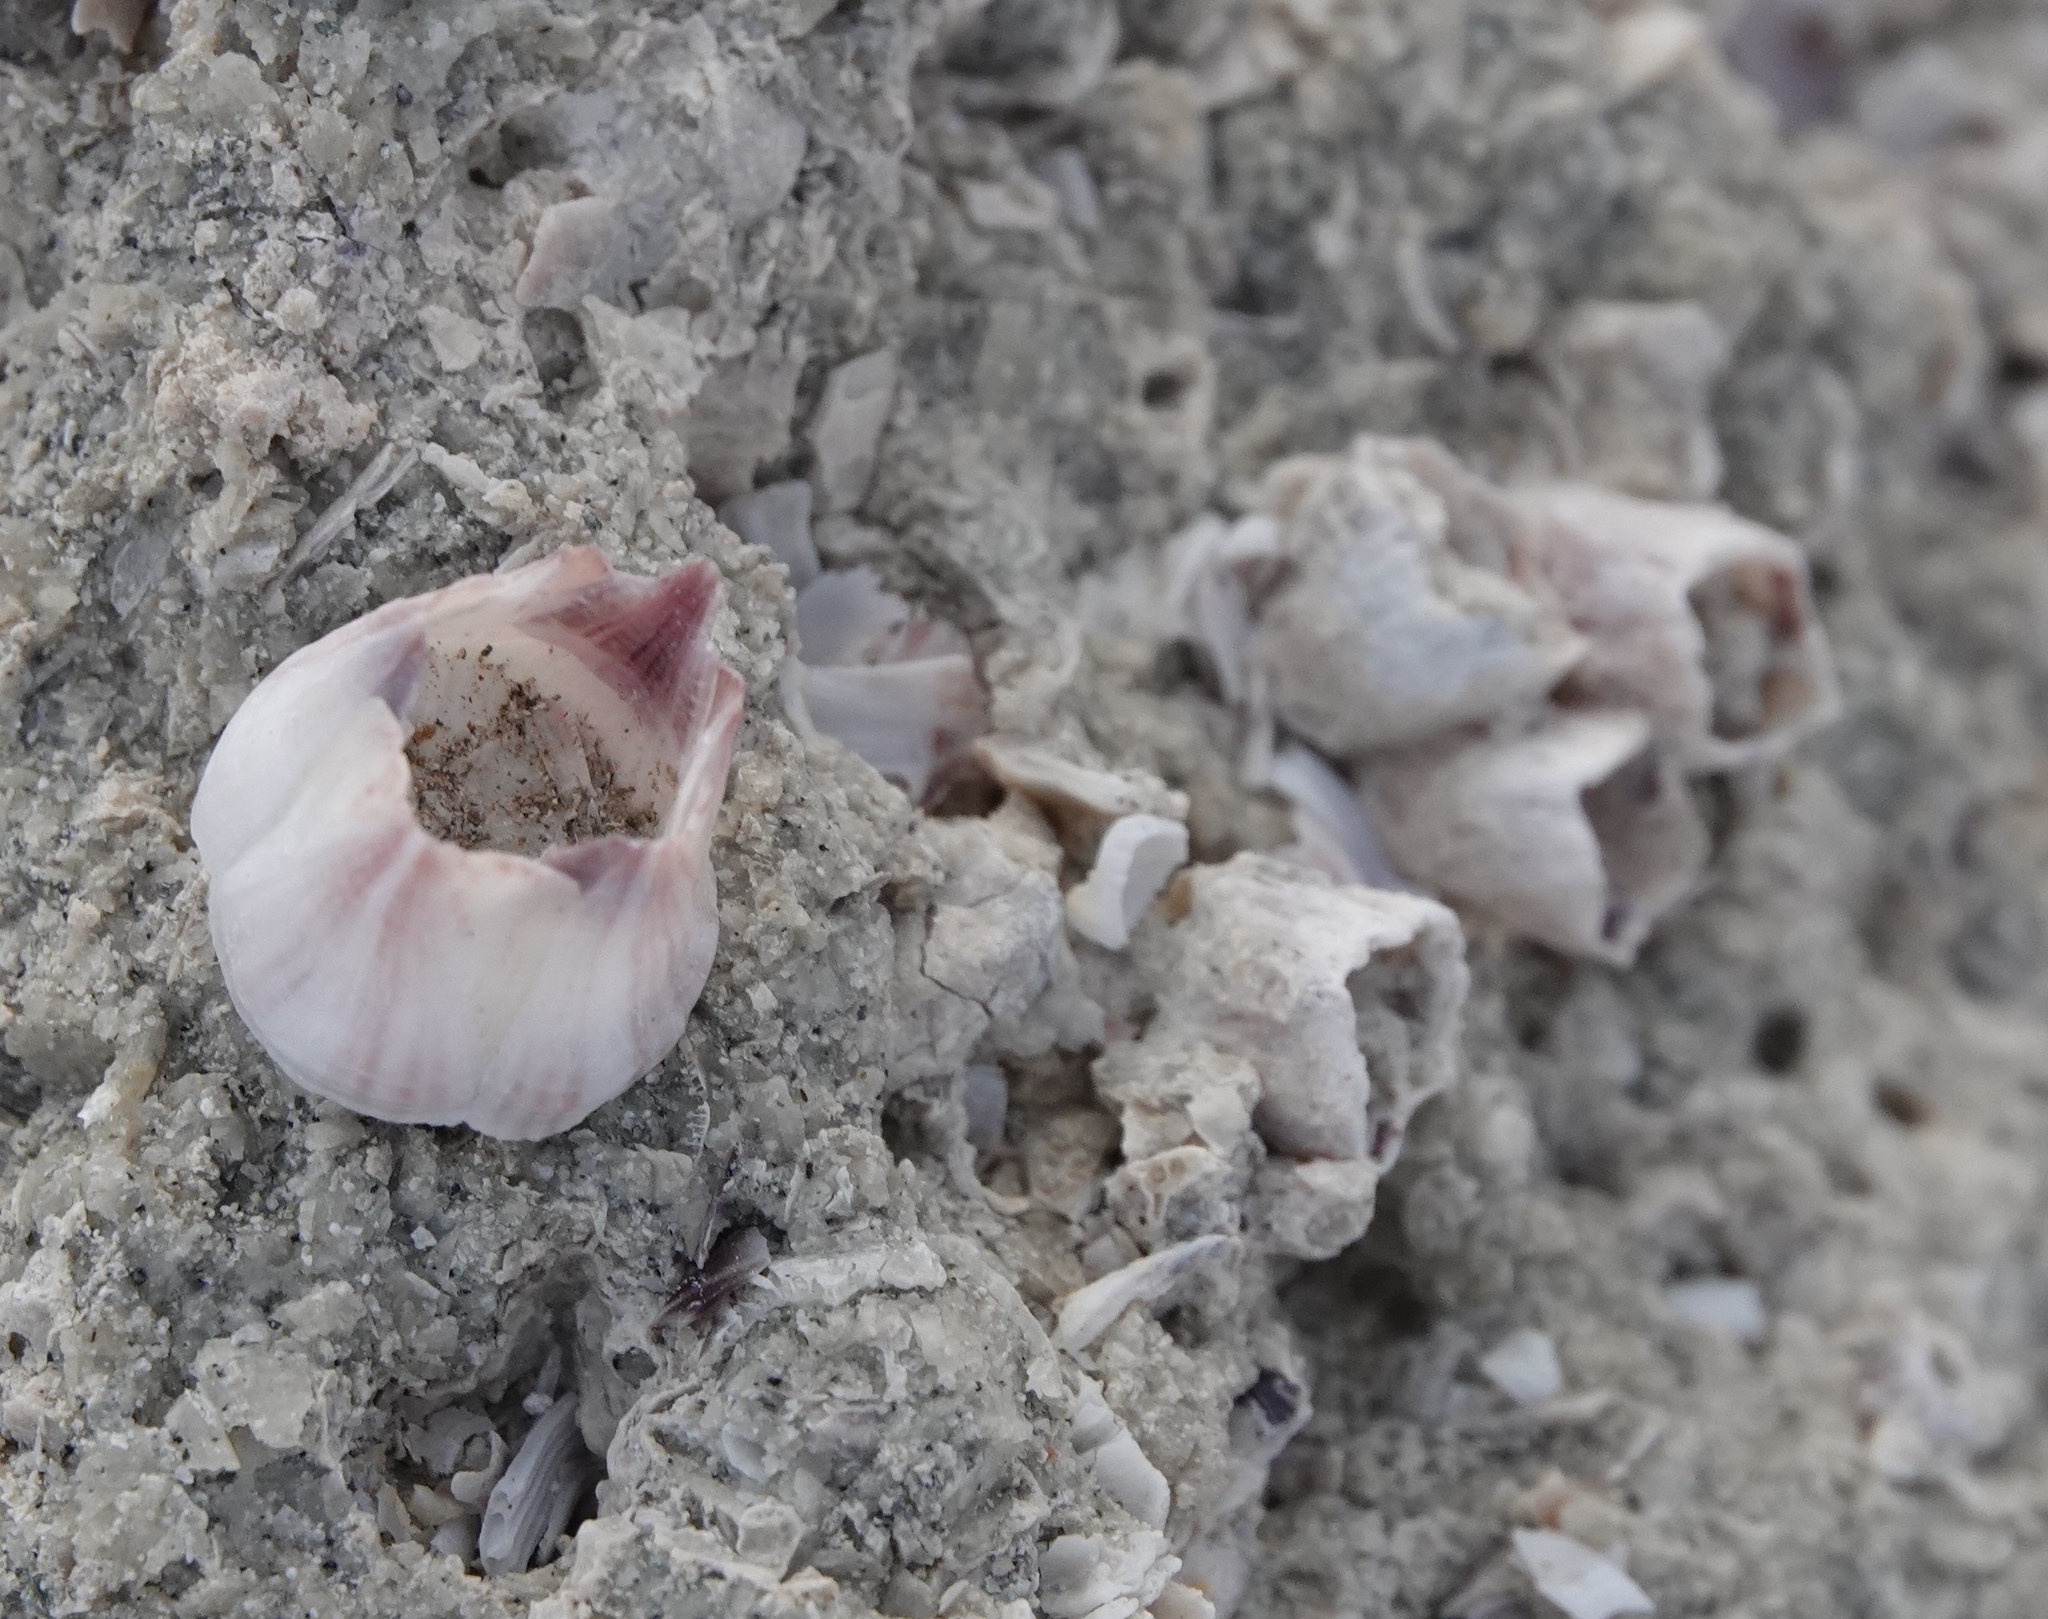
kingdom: Animalia
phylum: Arthropoda
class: Maxillopoda
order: Sessilia
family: Balanidae
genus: Amphibalanus
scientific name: Amphibalanus amphitrite
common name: Striped acorn barnacle
